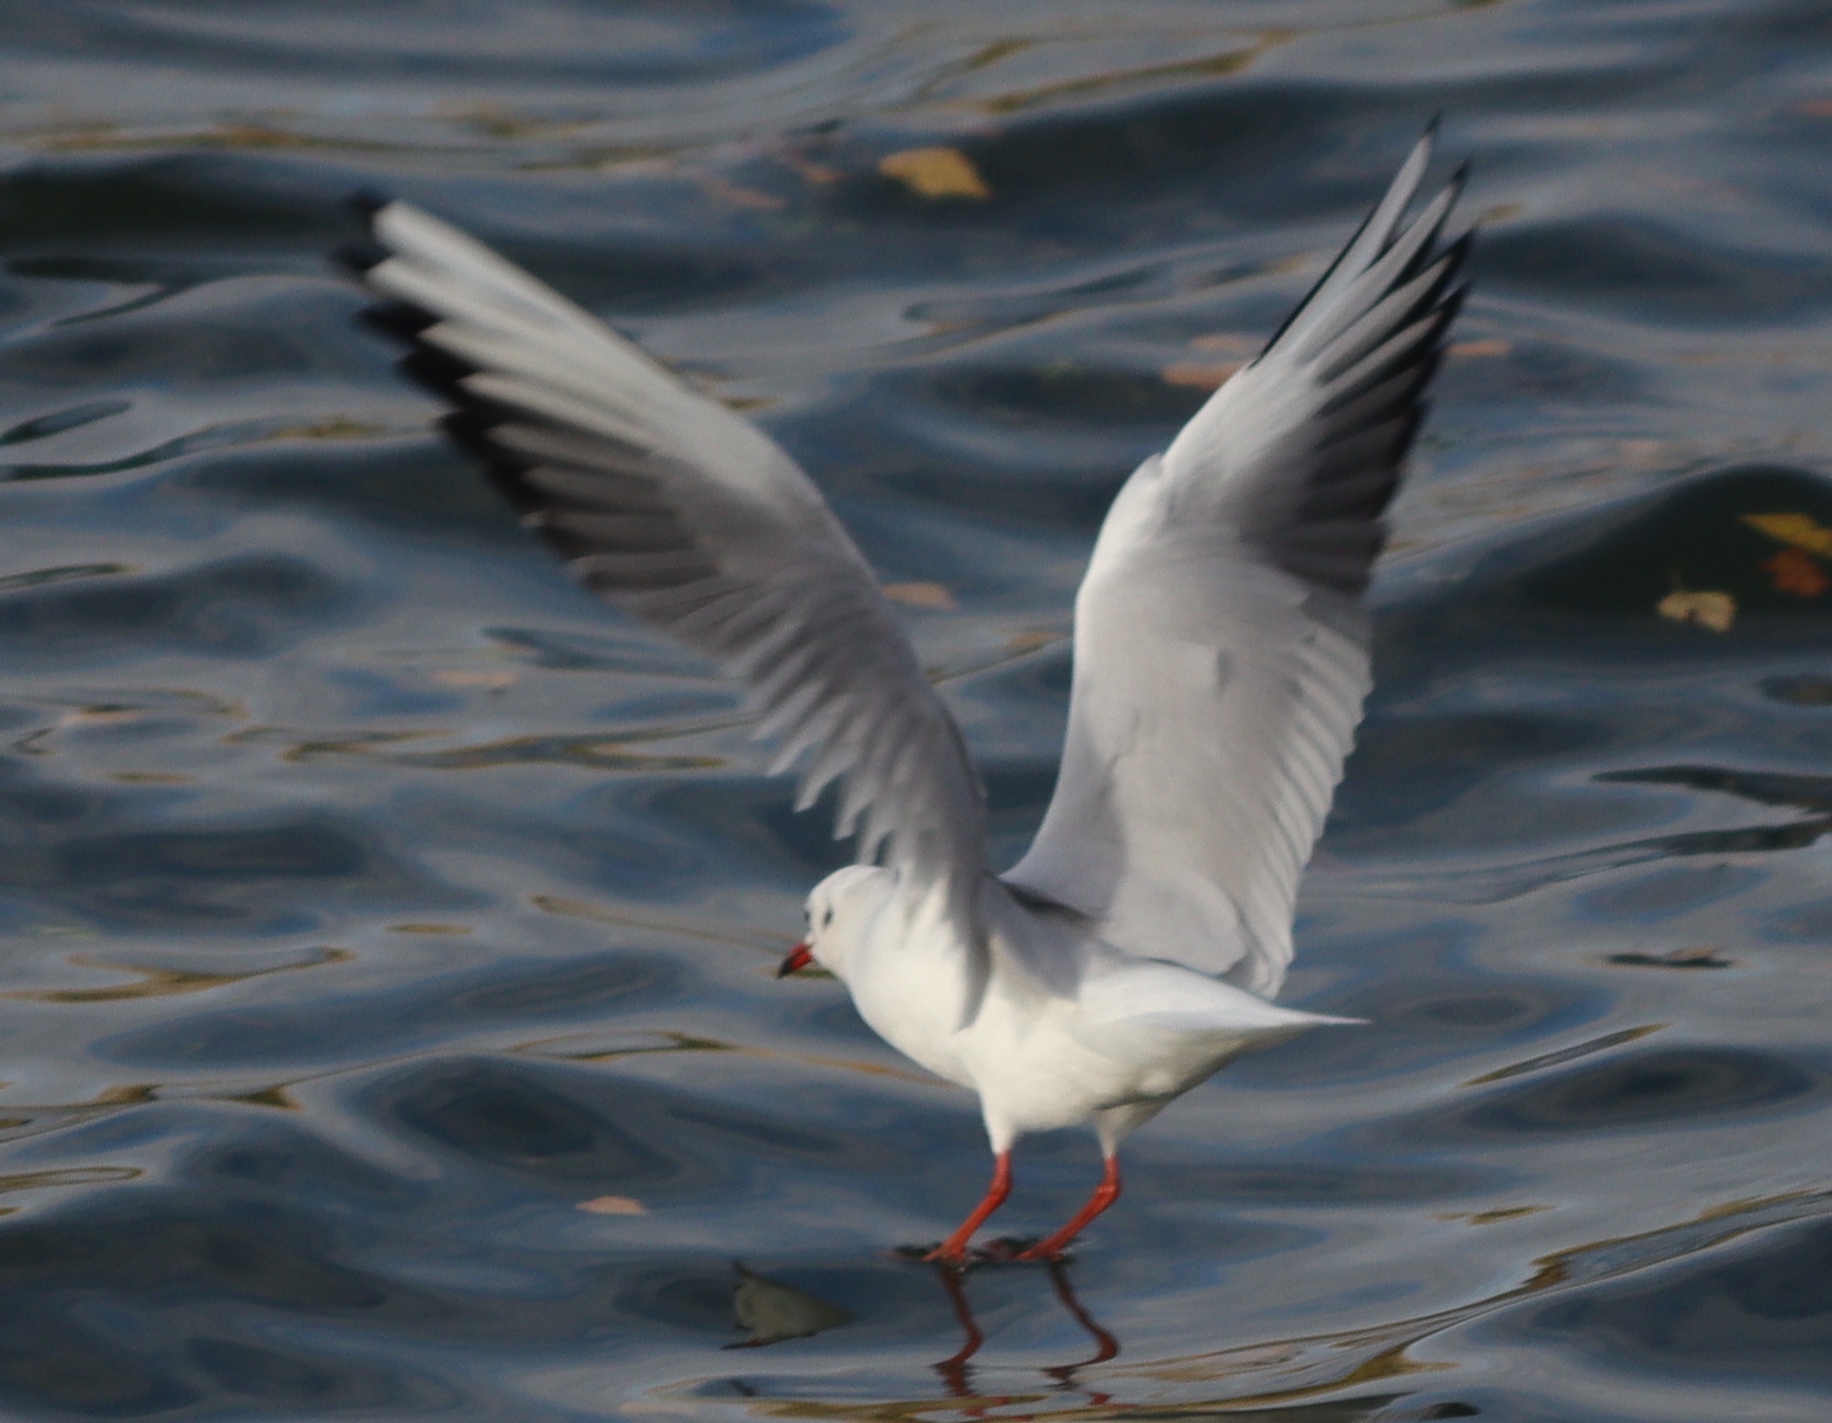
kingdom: Animalia
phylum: Chordata
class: Aves
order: Charadriiformes
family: Laridae
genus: Chroicocephalus
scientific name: Chroicocephalus ridibundus
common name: Black-headed gull
